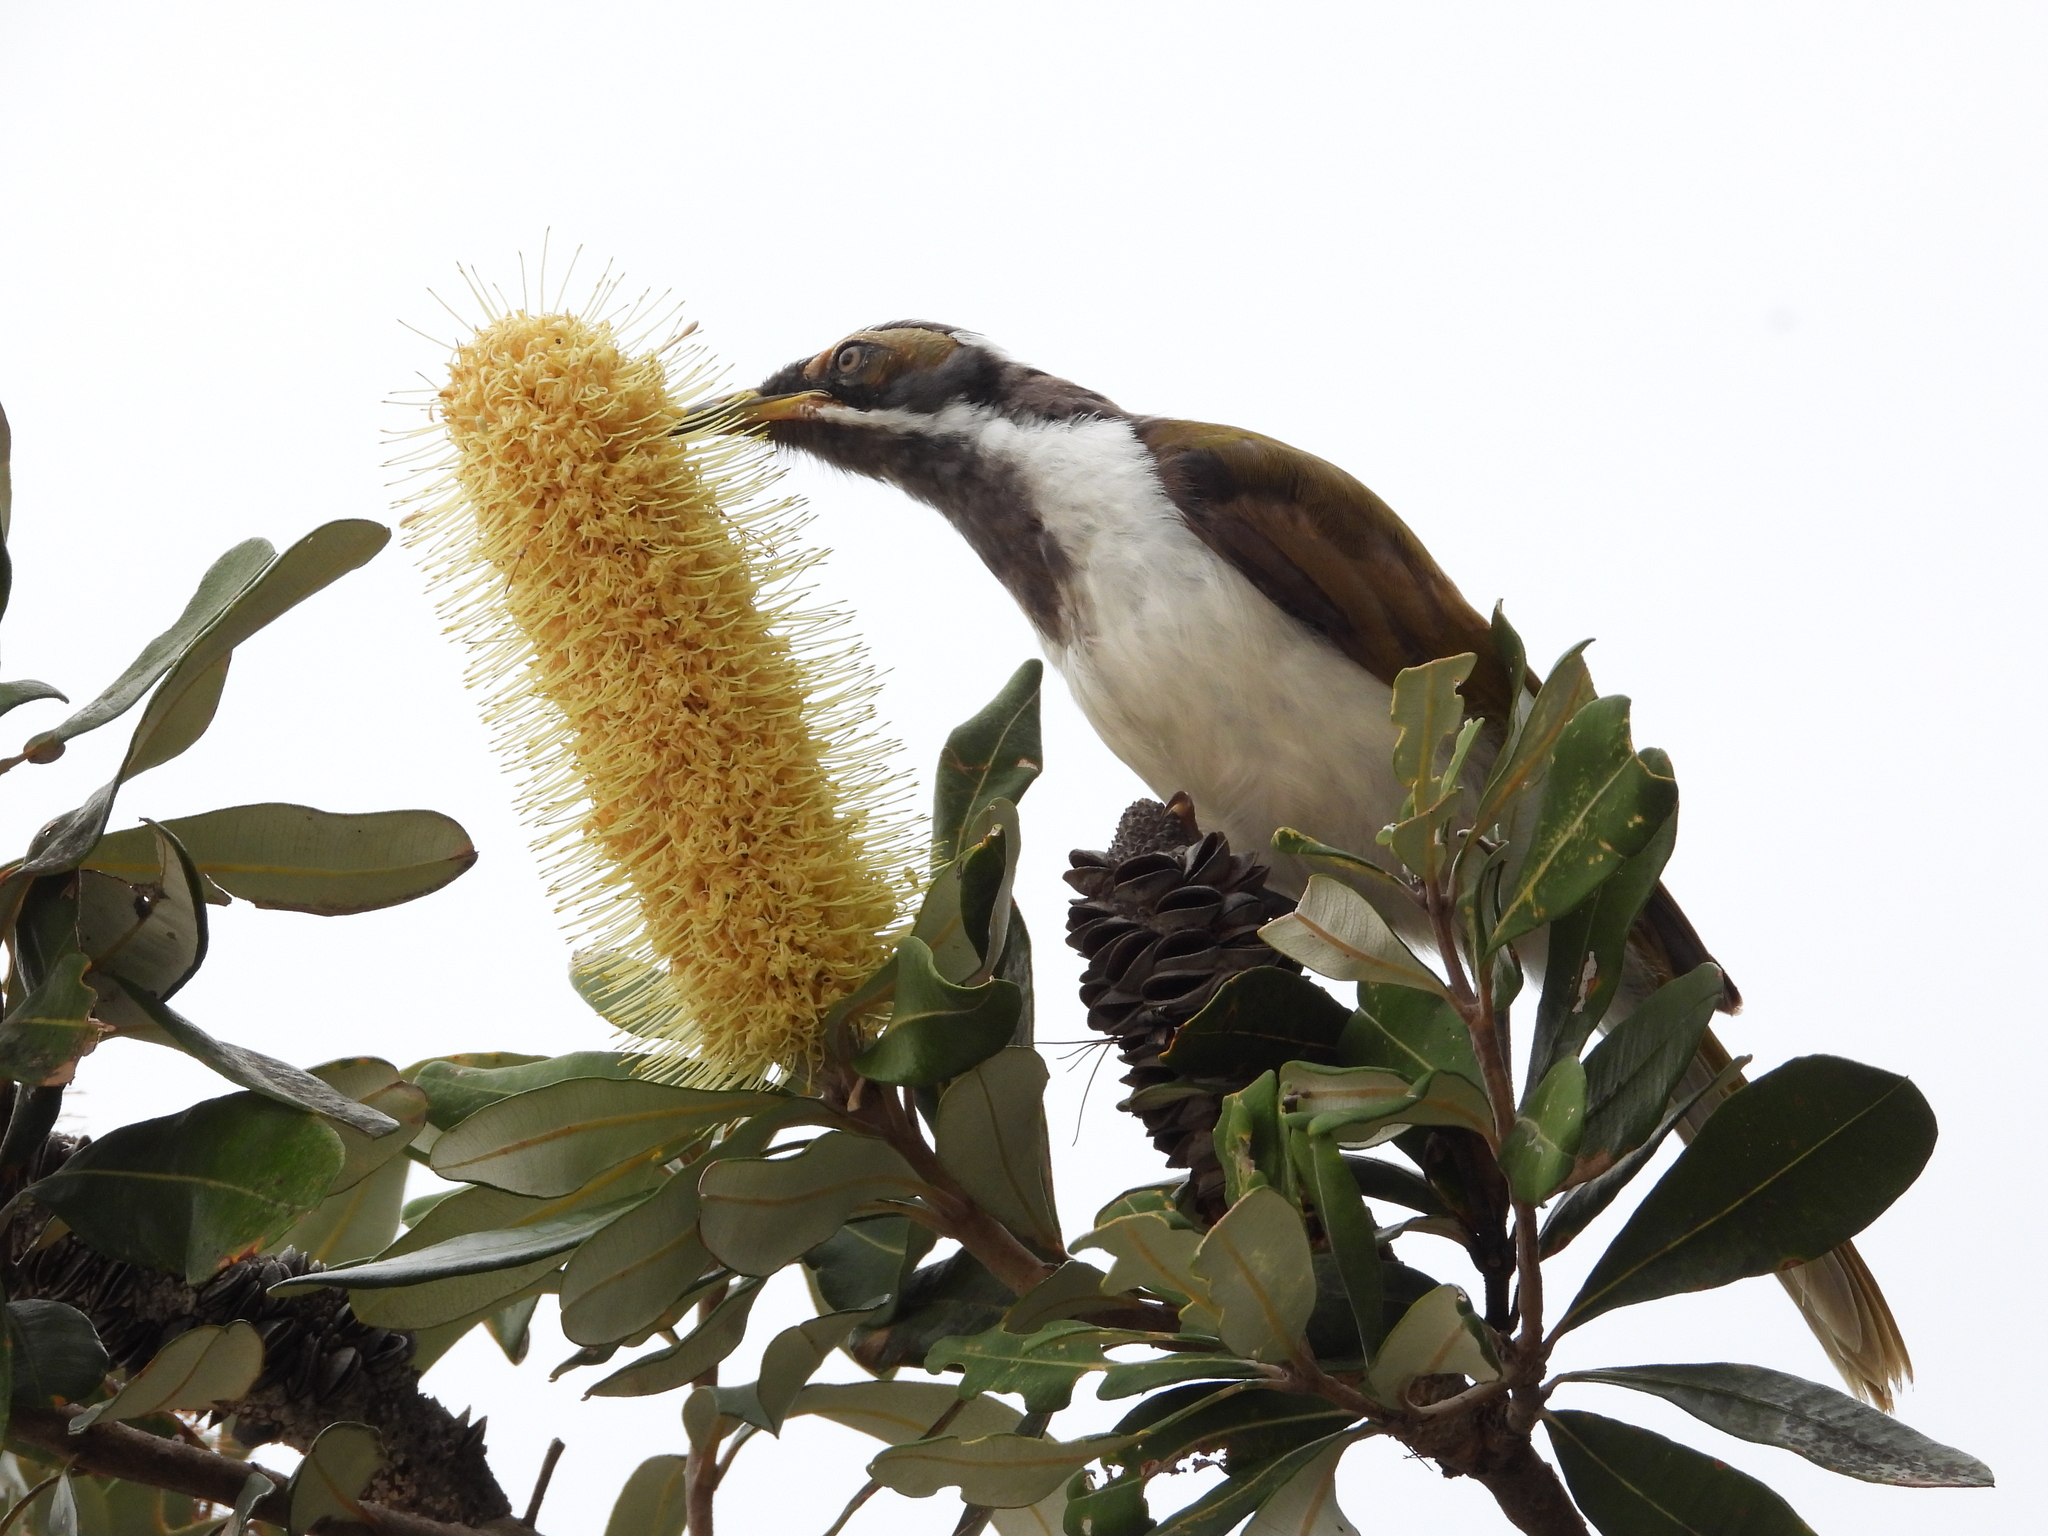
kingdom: Animalia
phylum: Chordata
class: Aves
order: Passeriformes
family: Meliphagidae
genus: Entomyzon
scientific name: Entomyzon cyanotis
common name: Blue-faced honeyeater
